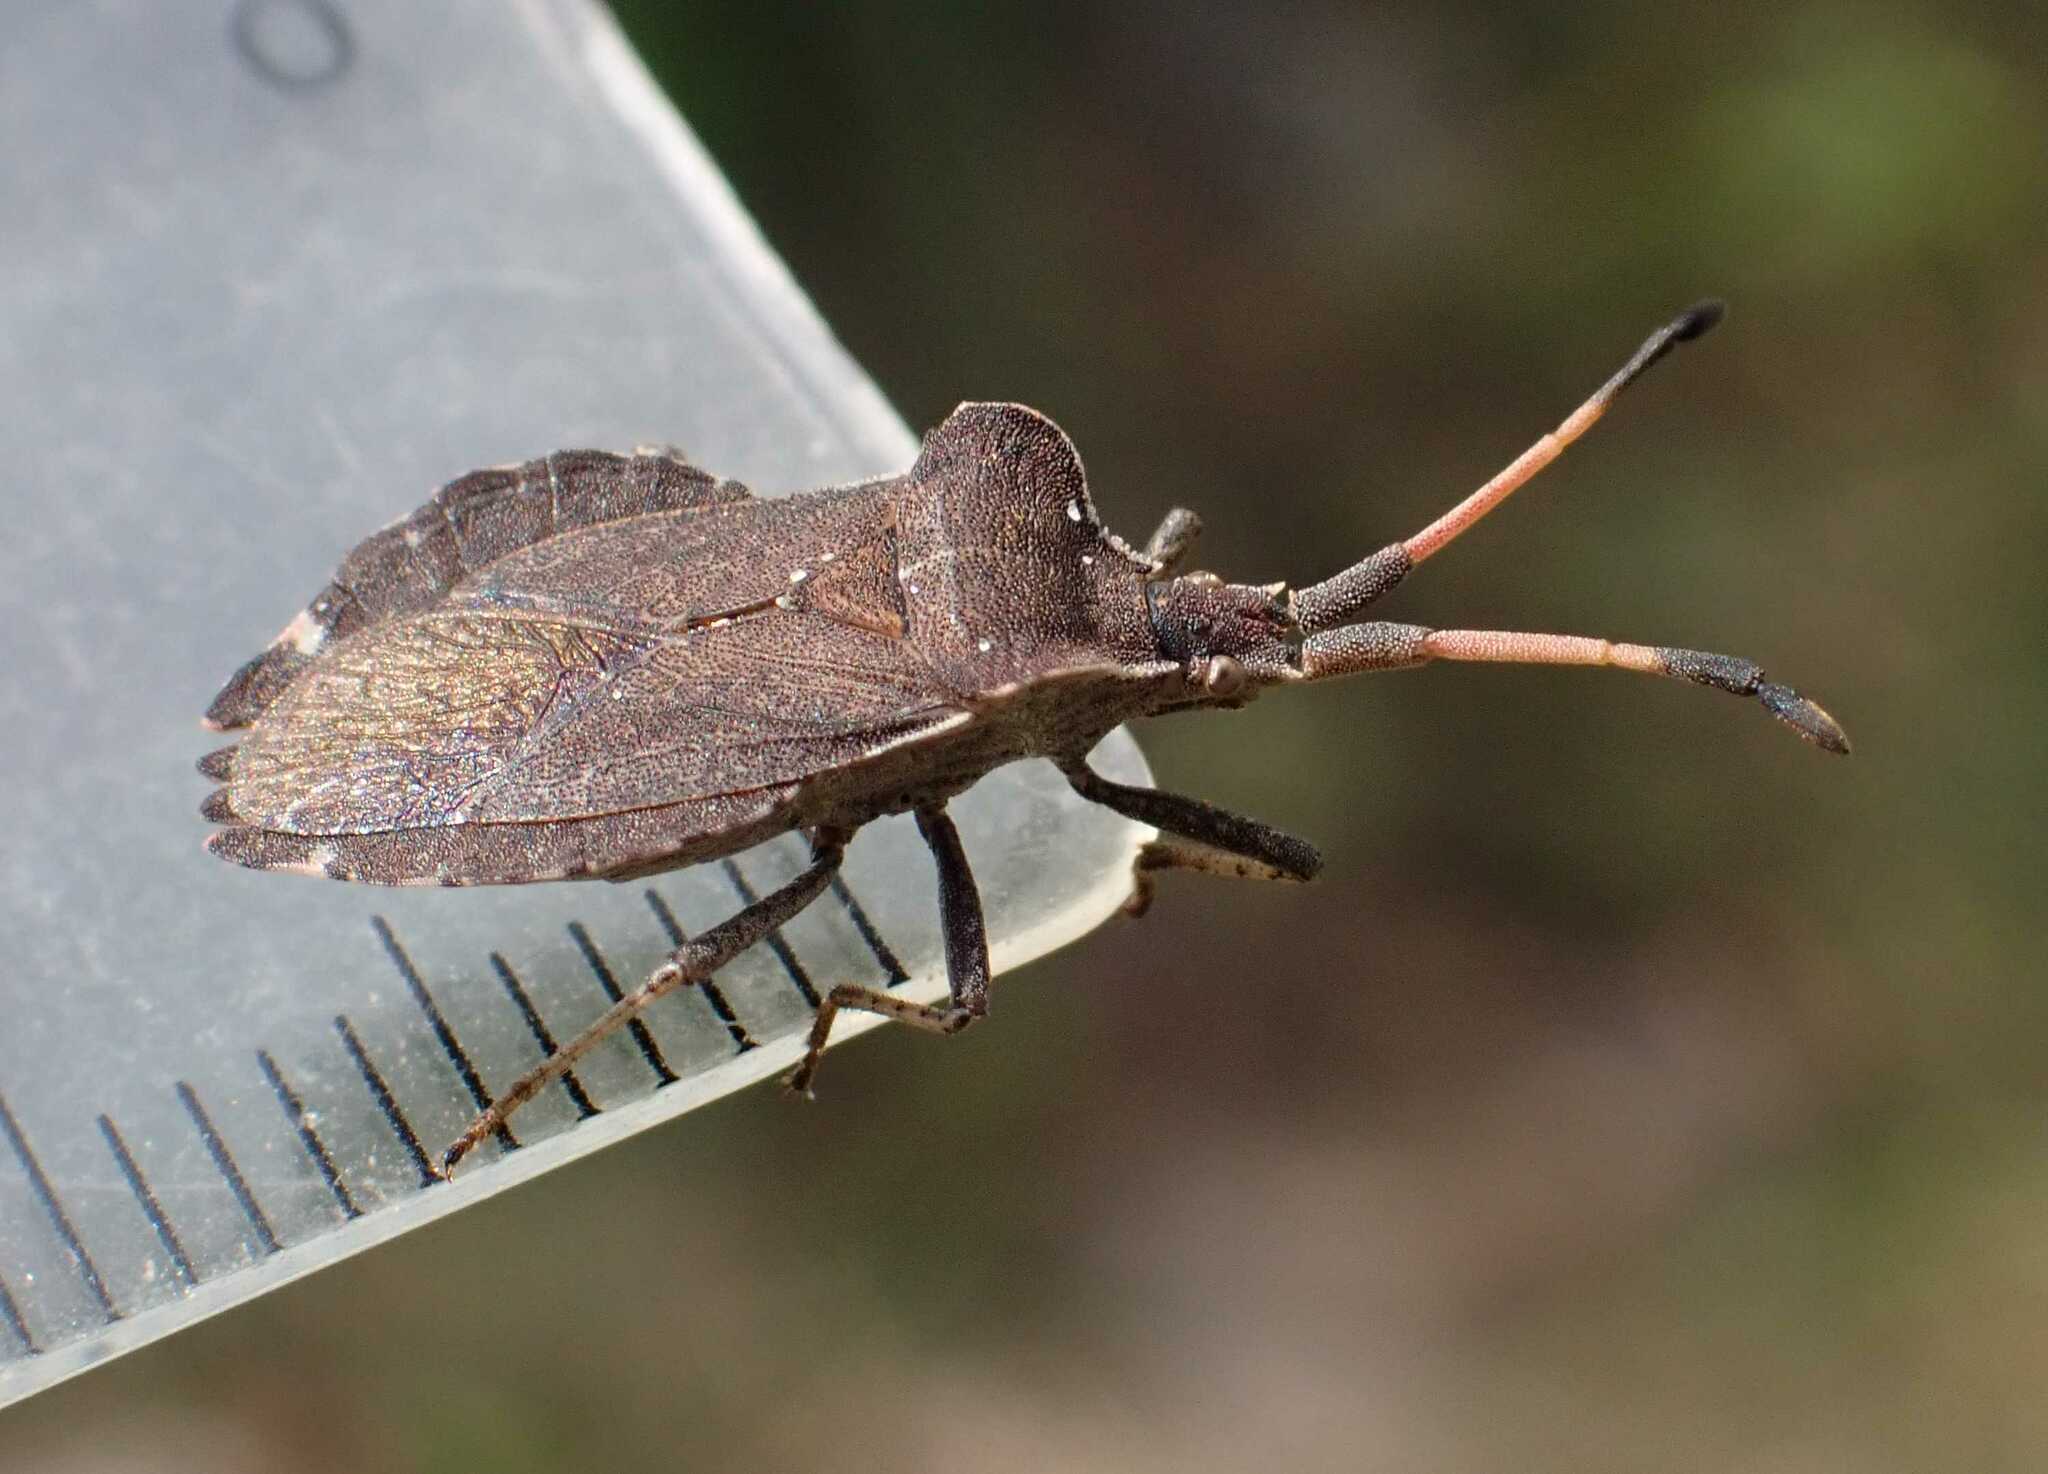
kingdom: Animalia
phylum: Arthropoda
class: Insecta
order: Hemiptera
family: Coreidae
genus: Enoplops
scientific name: Enoplops scapha
